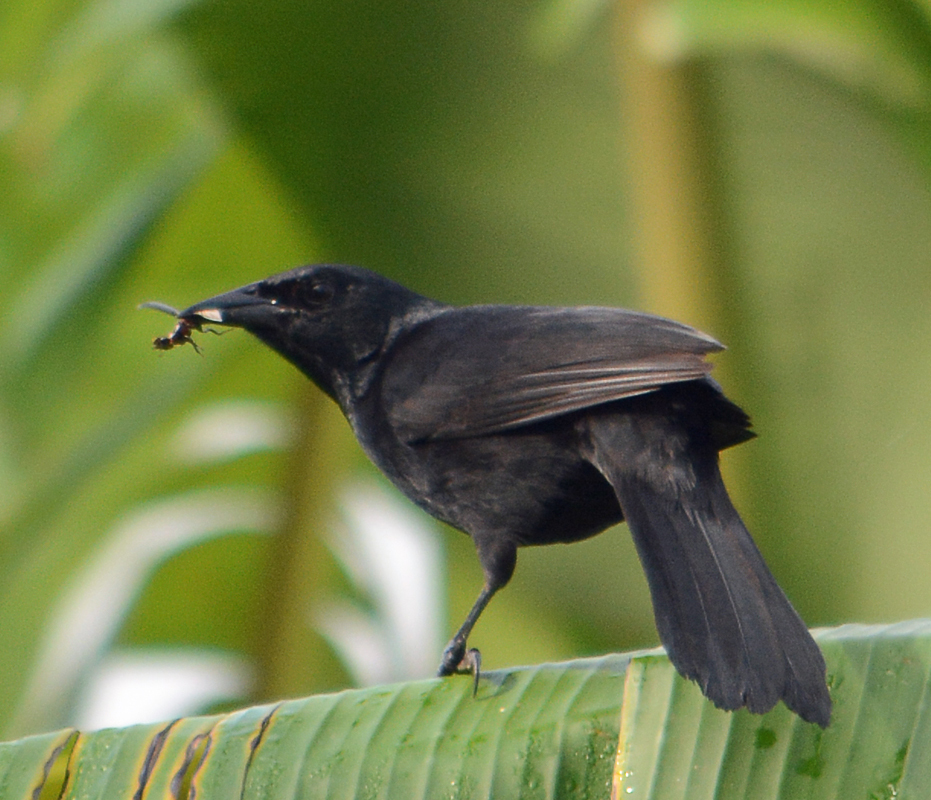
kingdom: Animalia
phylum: Chordata
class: Aves
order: Passeriformes
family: Icteridae
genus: Dives
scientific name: Dives dives
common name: Melodious blackbird
